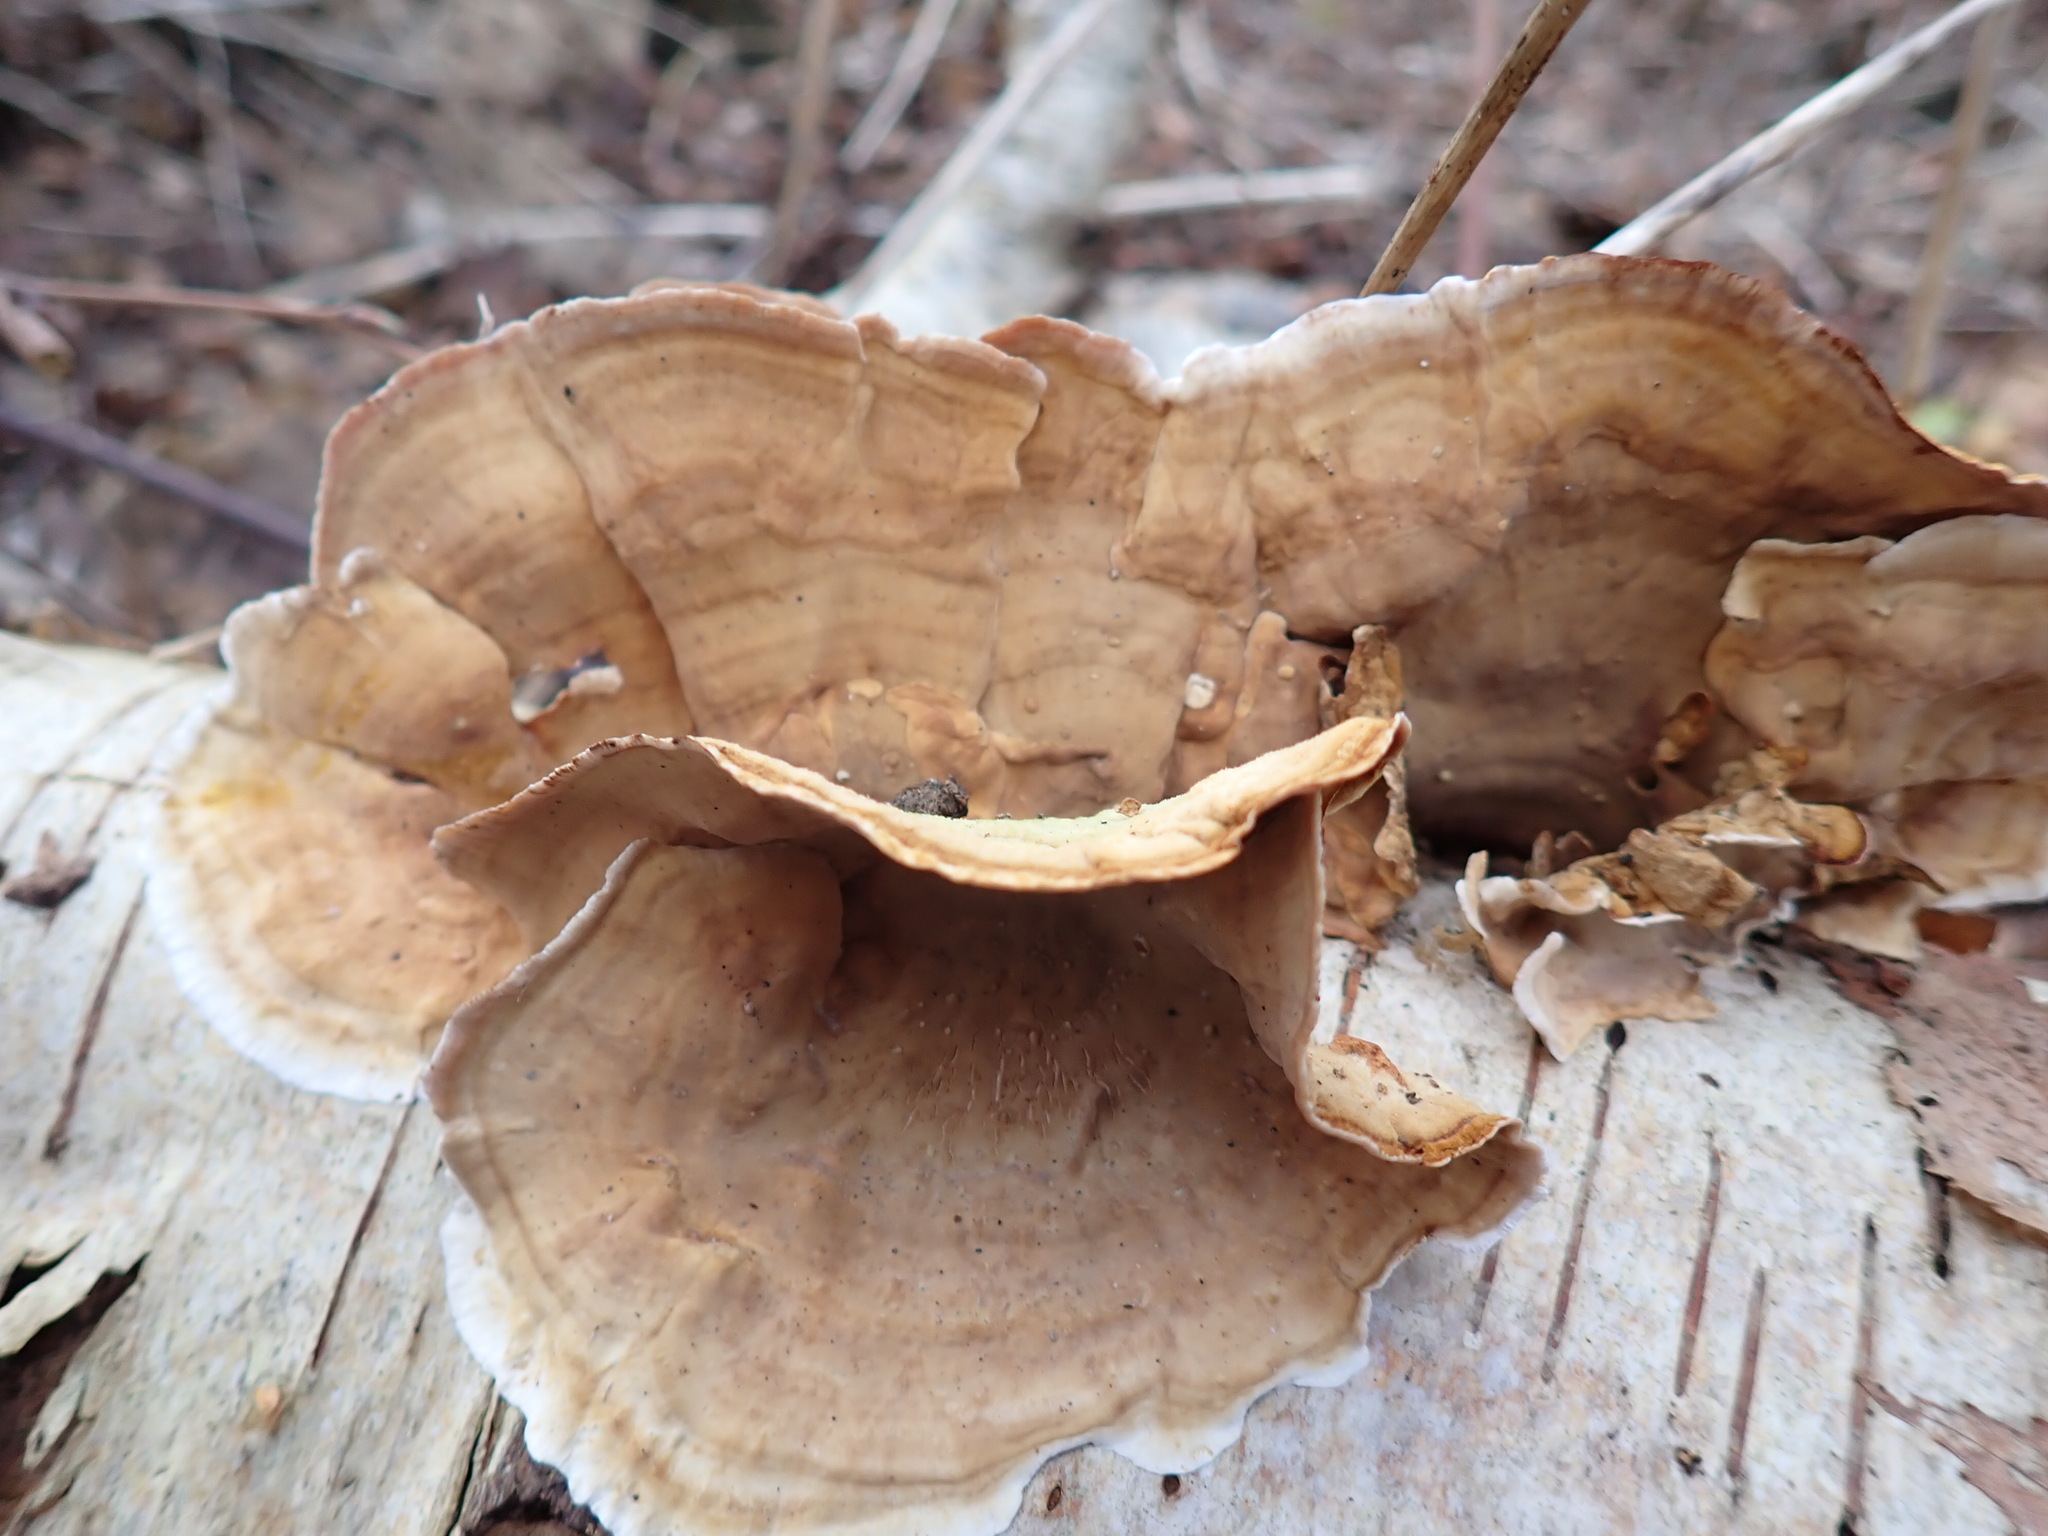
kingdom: Fungi
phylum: Basidiomycota
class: Agaricomycetes
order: Russulales
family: Stereaceae
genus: Stereum
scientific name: Stereum subtomentosum
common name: Yellowing curtain crust
